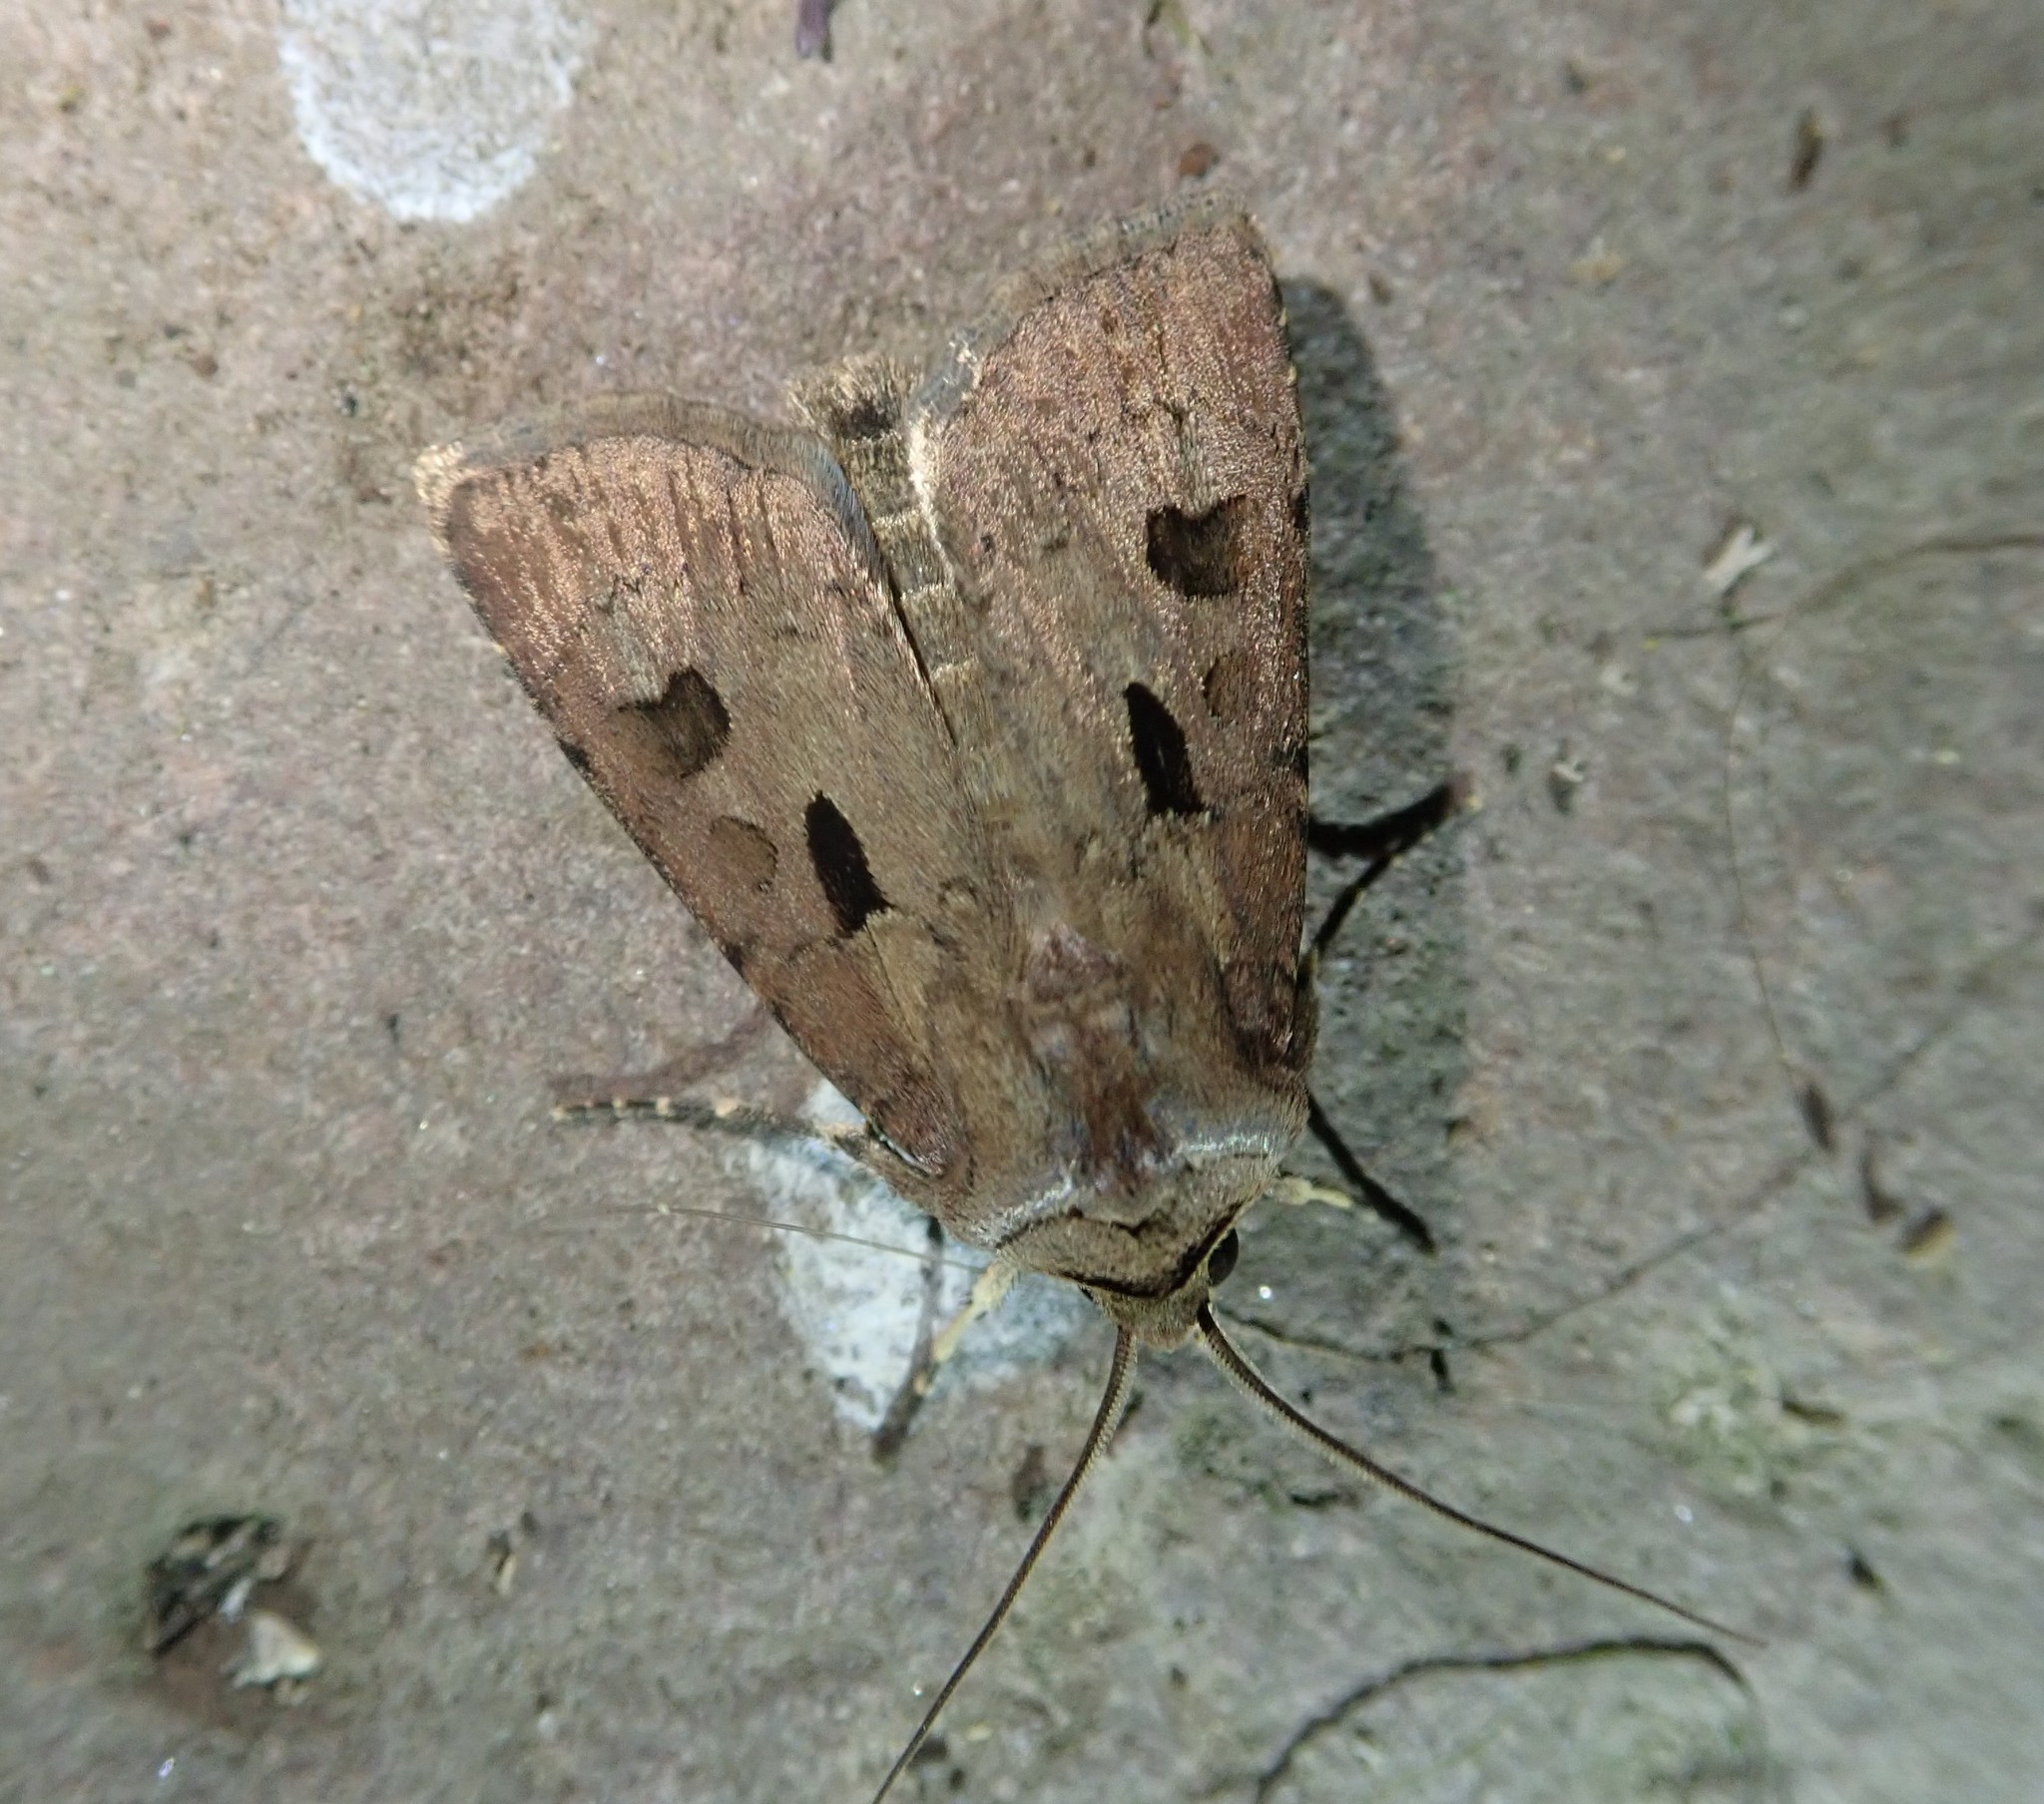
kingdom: Animalia
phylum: Arthropoda
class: Insecta
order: Lepidoptera
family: Noctuidae
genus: Agrotis
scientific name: Agrotis exclamationis
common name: Heart and dart
